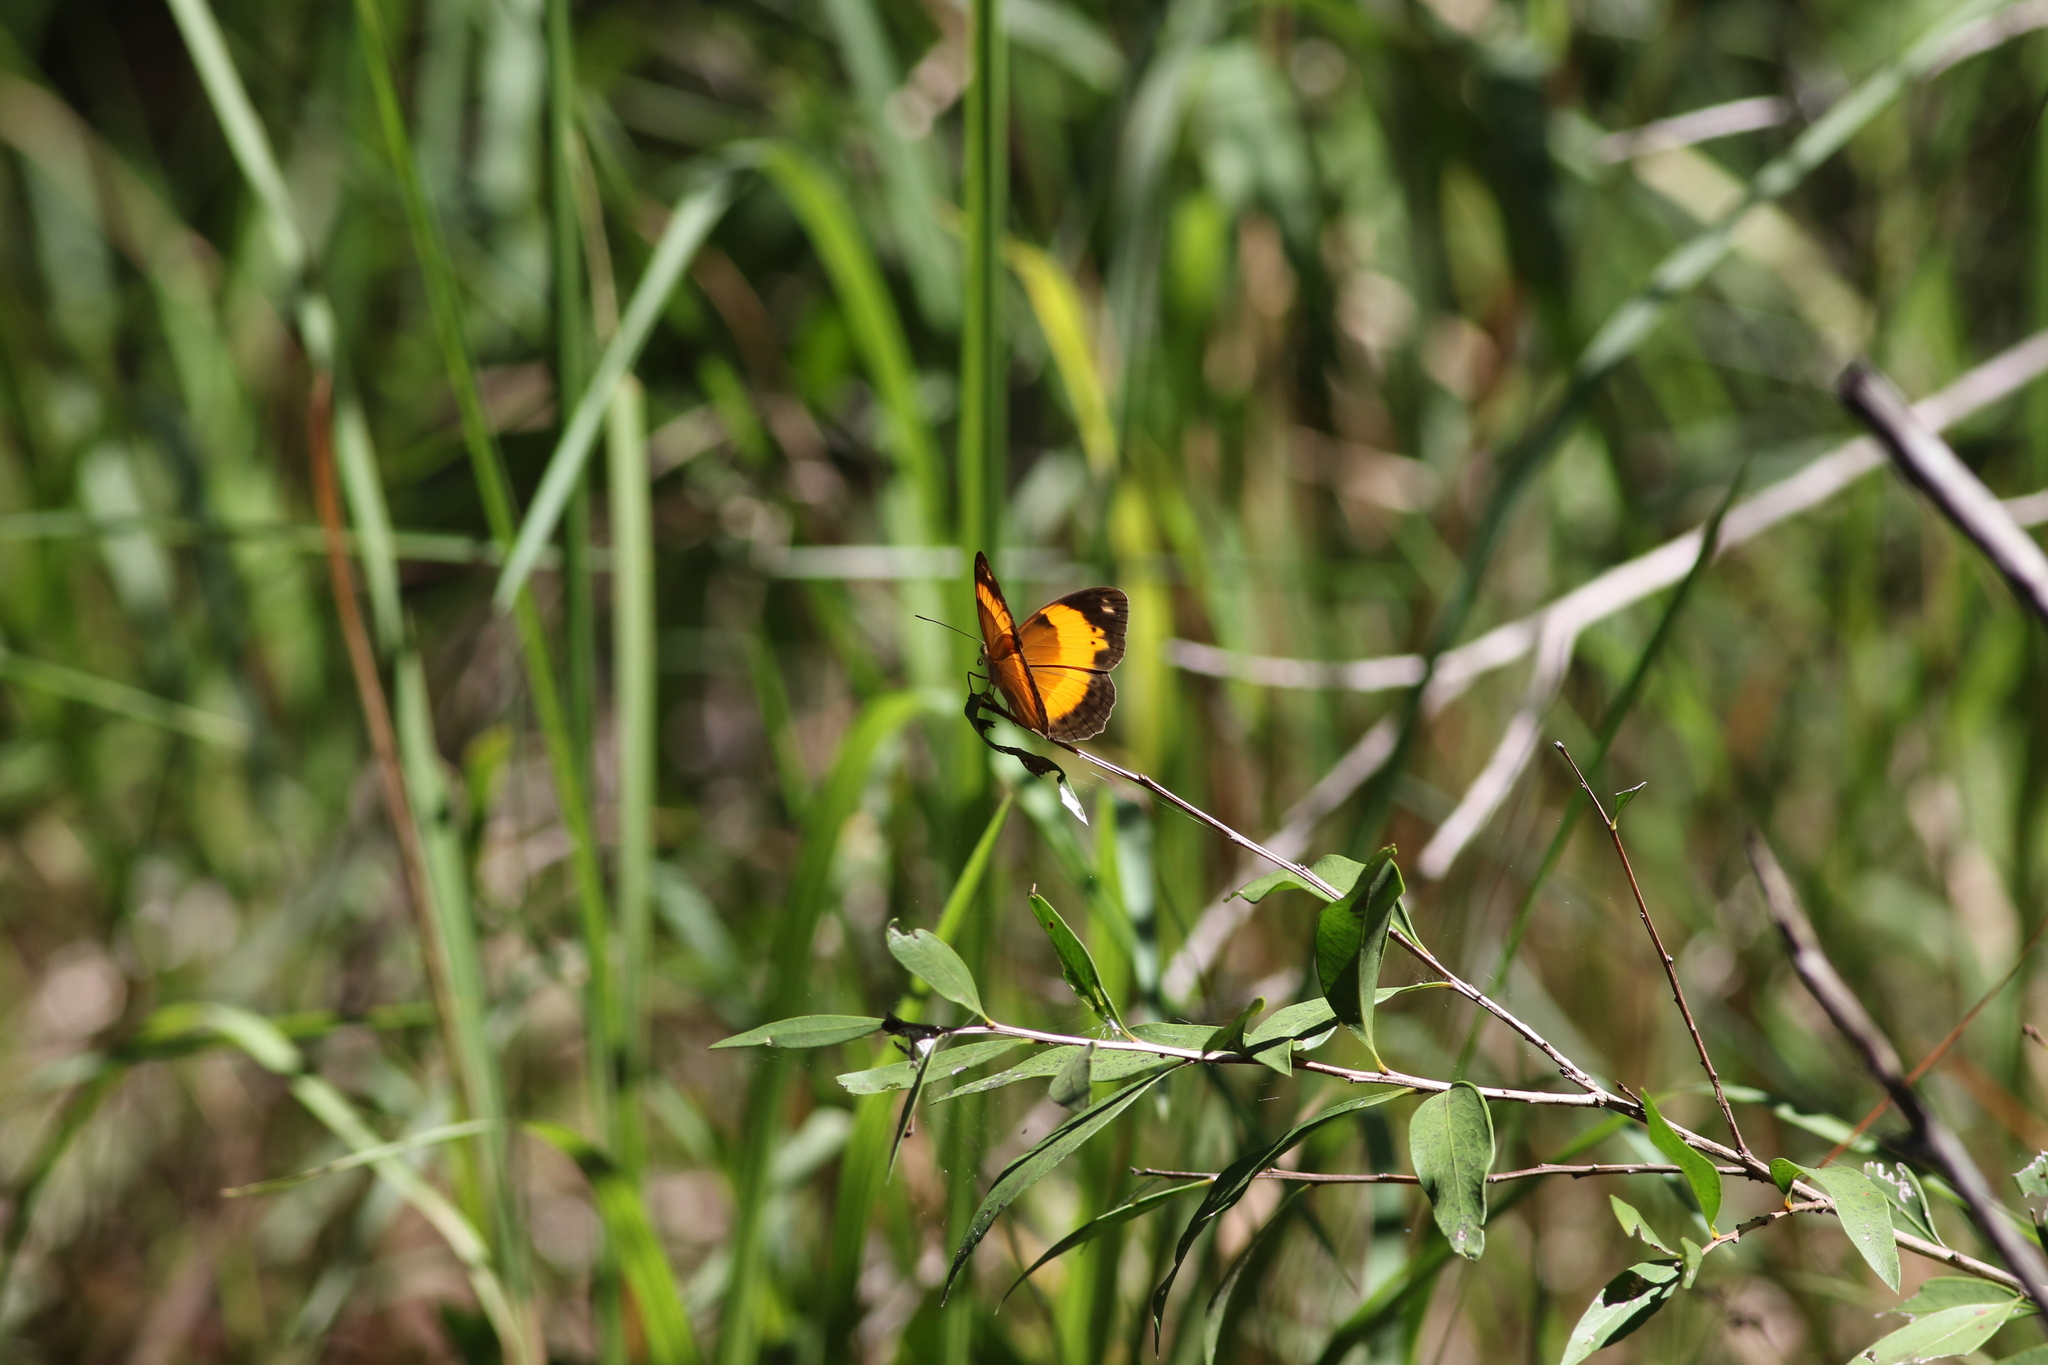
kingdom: Animalia
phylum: Arthropoda
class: Insecta
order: Lepidoptera
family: Nymphalidae
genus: Cupha
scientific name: Cupha prosope
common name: Bordered rustic
